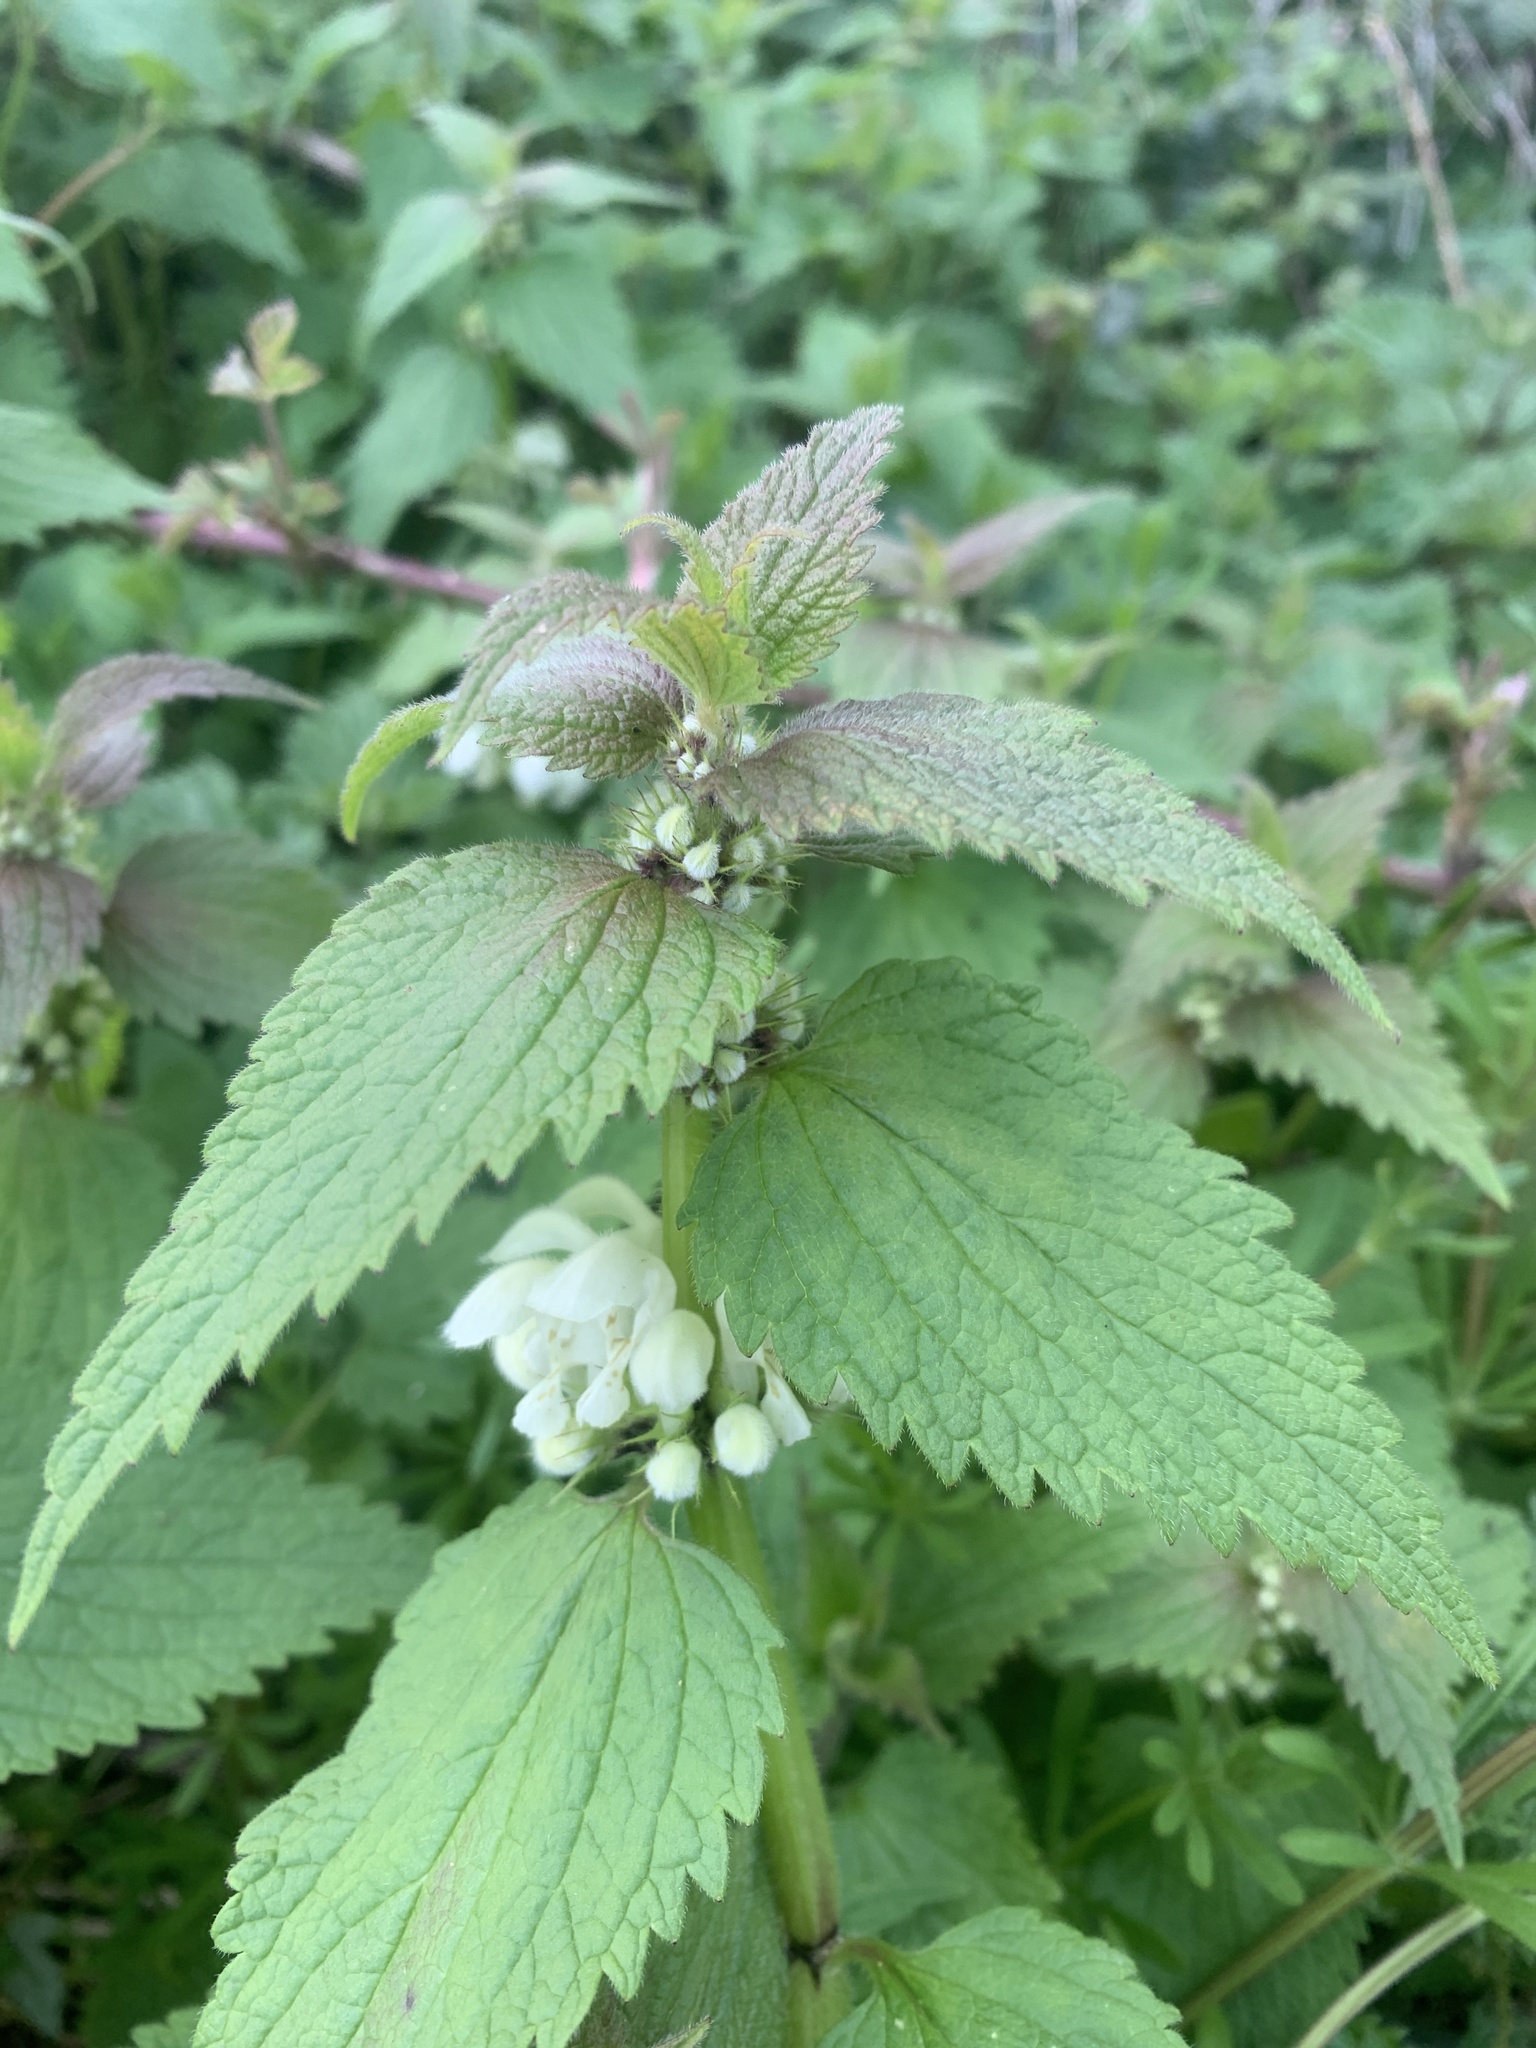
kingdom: Plantae
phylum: Tracheophyta
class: Magnoliopsida
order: Lamiales
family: Lamiaceae
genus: Lamium
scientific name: Lamium album
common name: White dead-nettle
